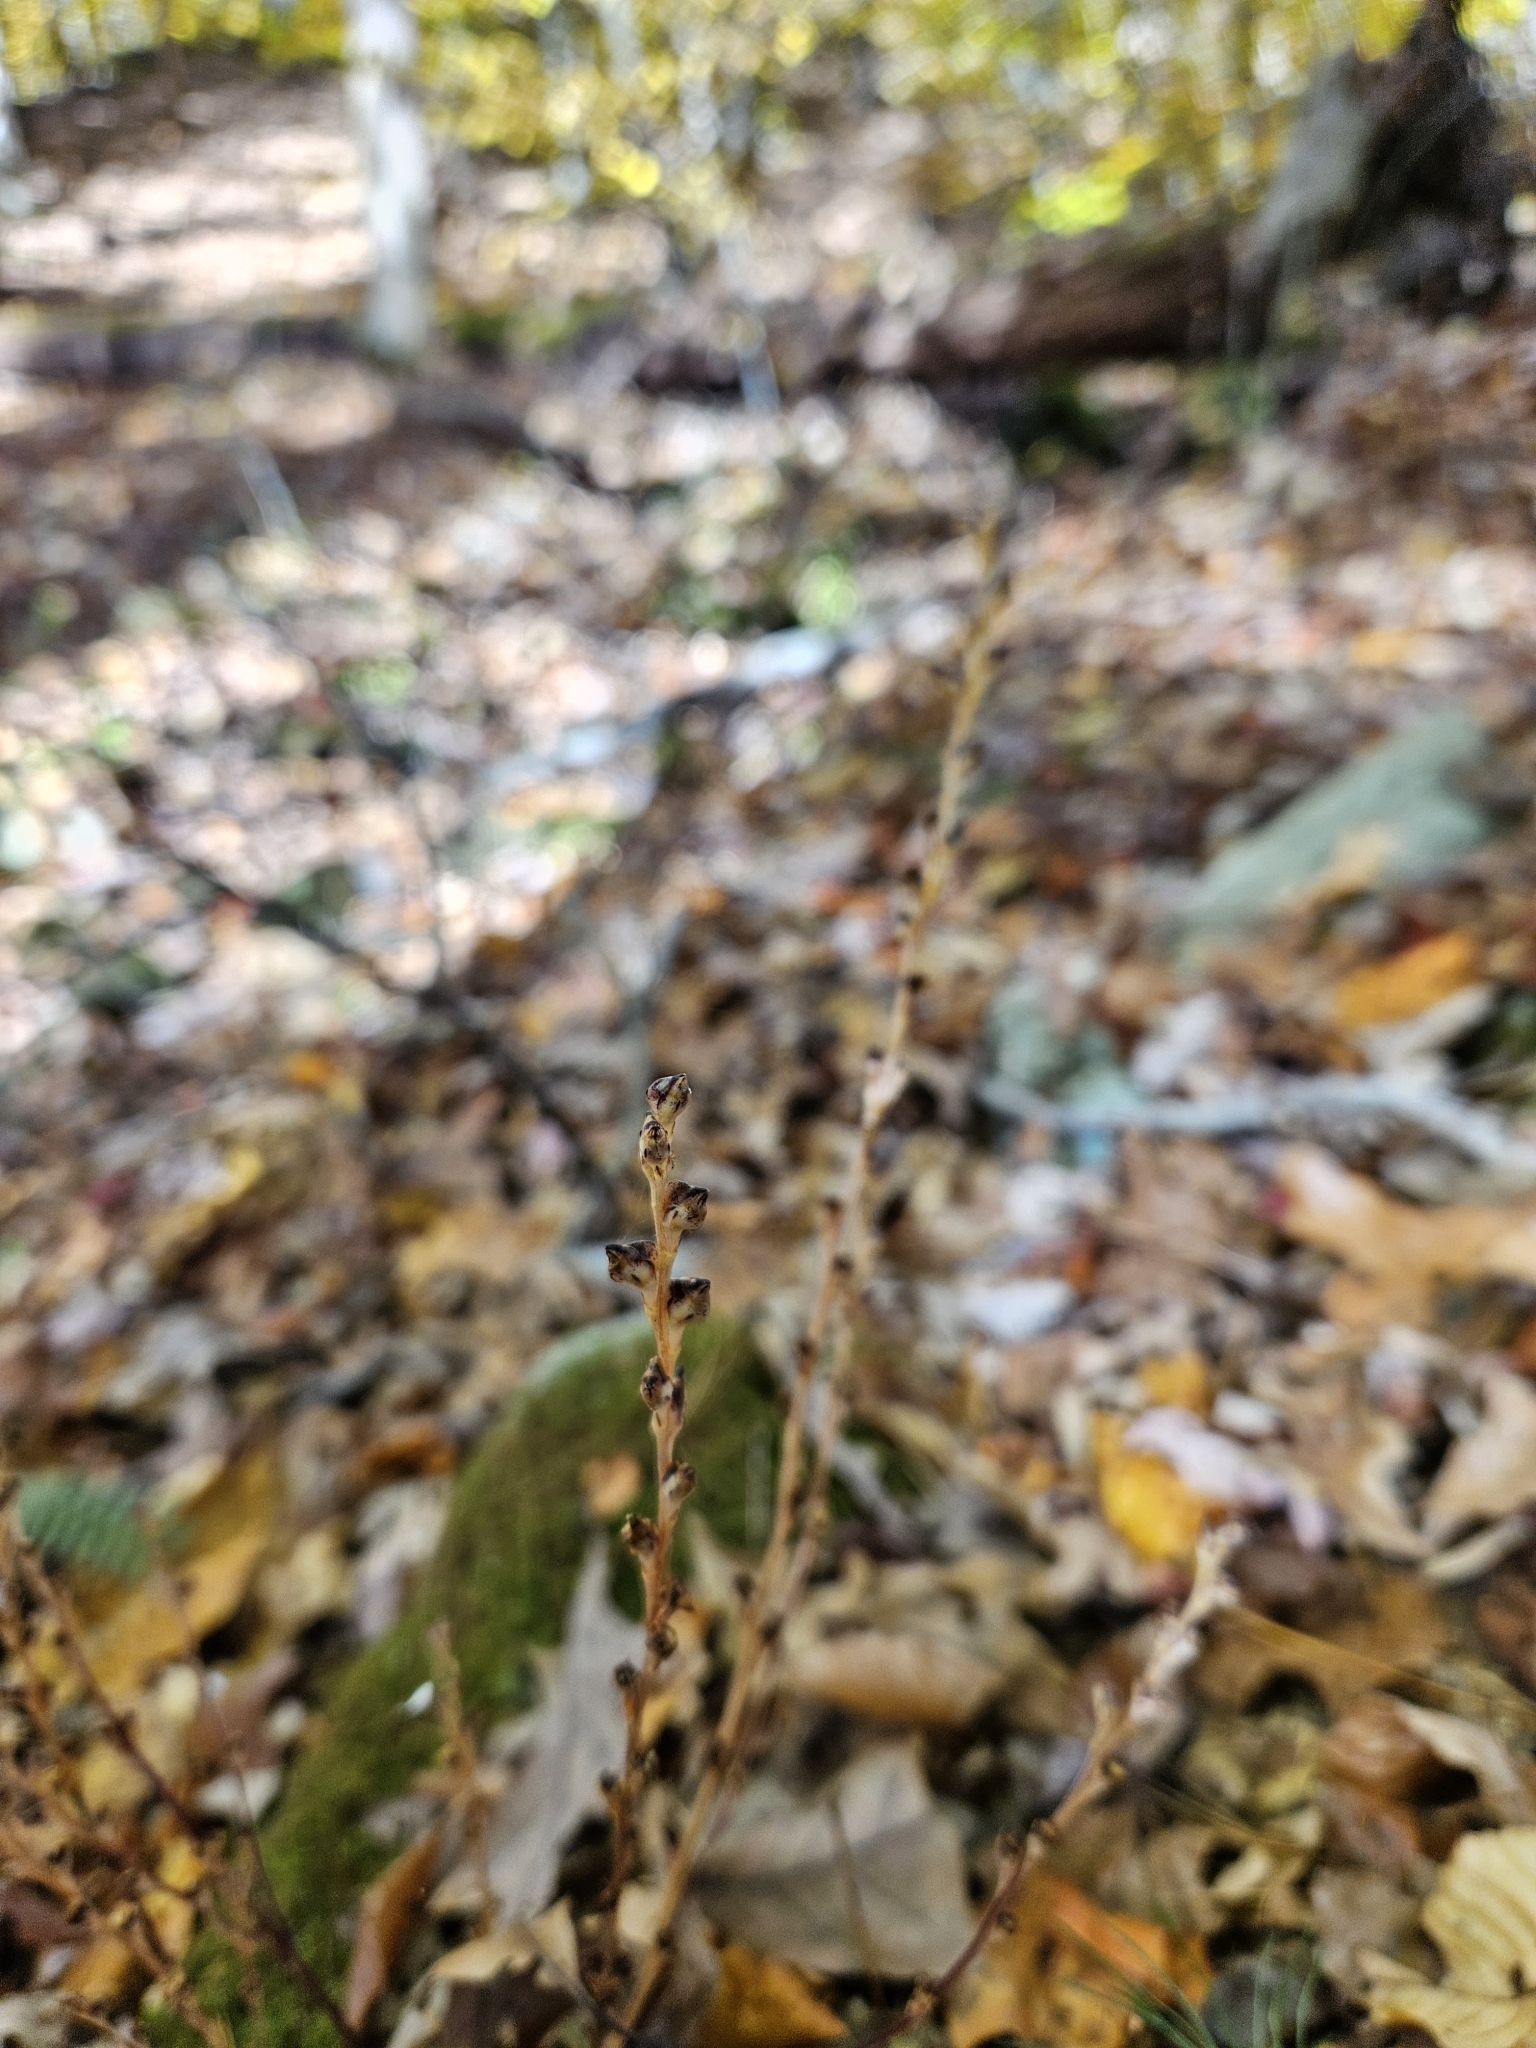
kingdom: Plantae
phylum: Tracheophyta
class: Magnoliopsida
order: Lamiales
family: Orobanchaceae
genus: Epifagus
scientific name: Epifagus virginiana
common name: Beechdrops
